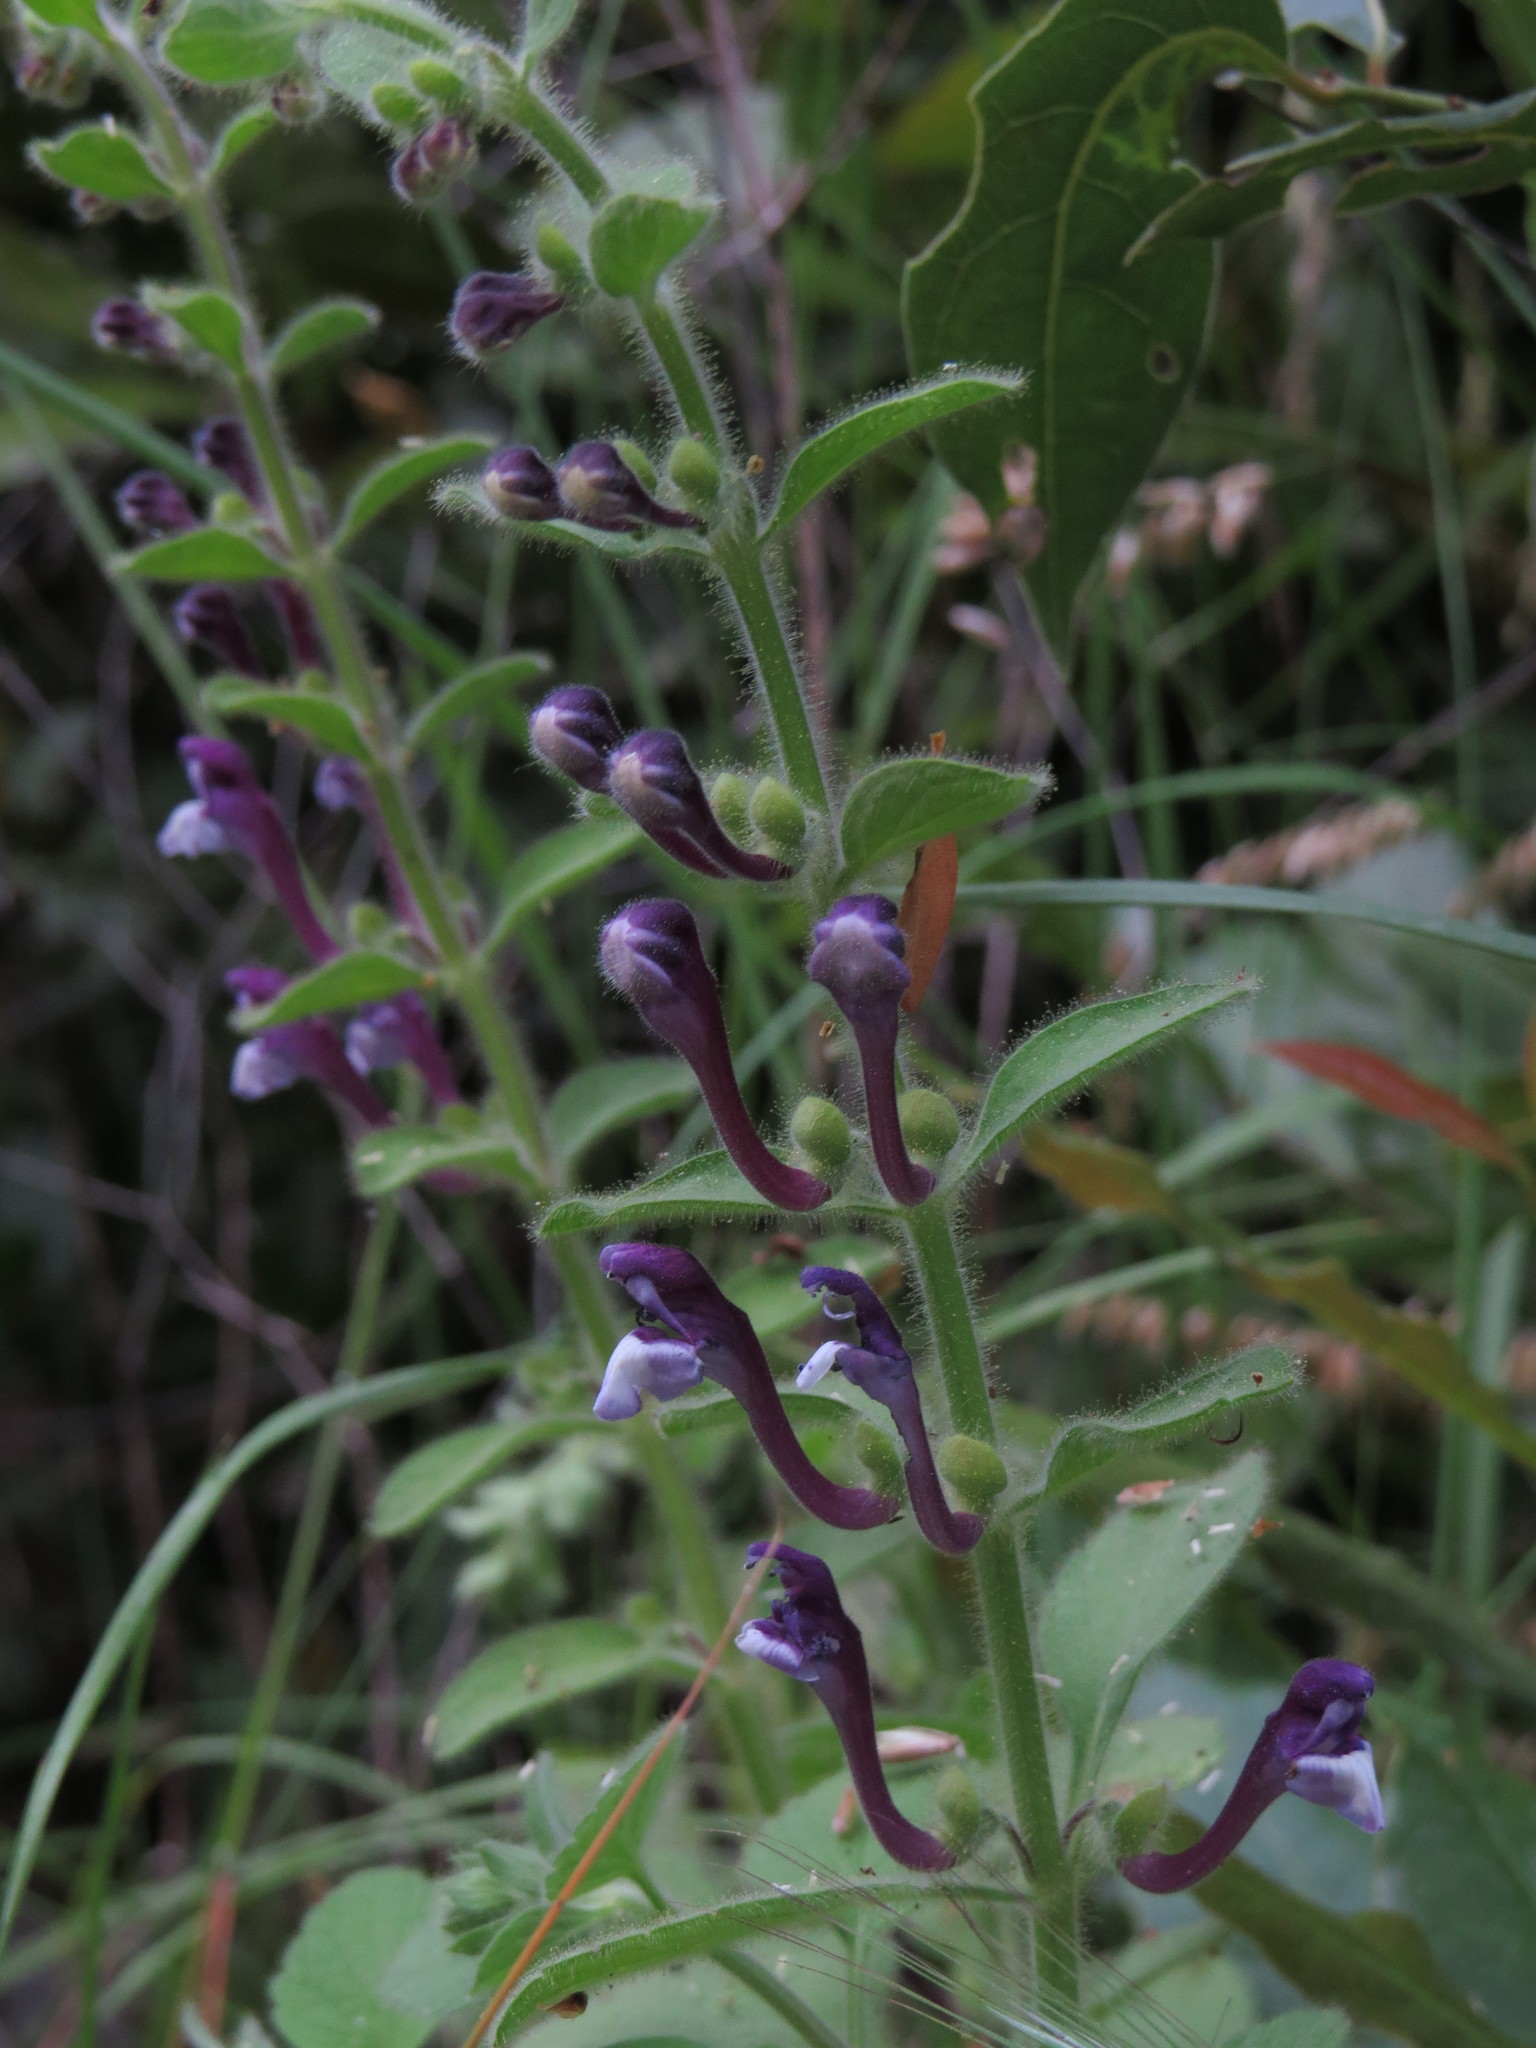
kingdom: Plantae
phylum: Tracheophyta
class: Magnoliopsida
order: Lamiales
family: Lamiaceae
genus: Scutellaria
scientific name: Scutellaria brevibracteata
